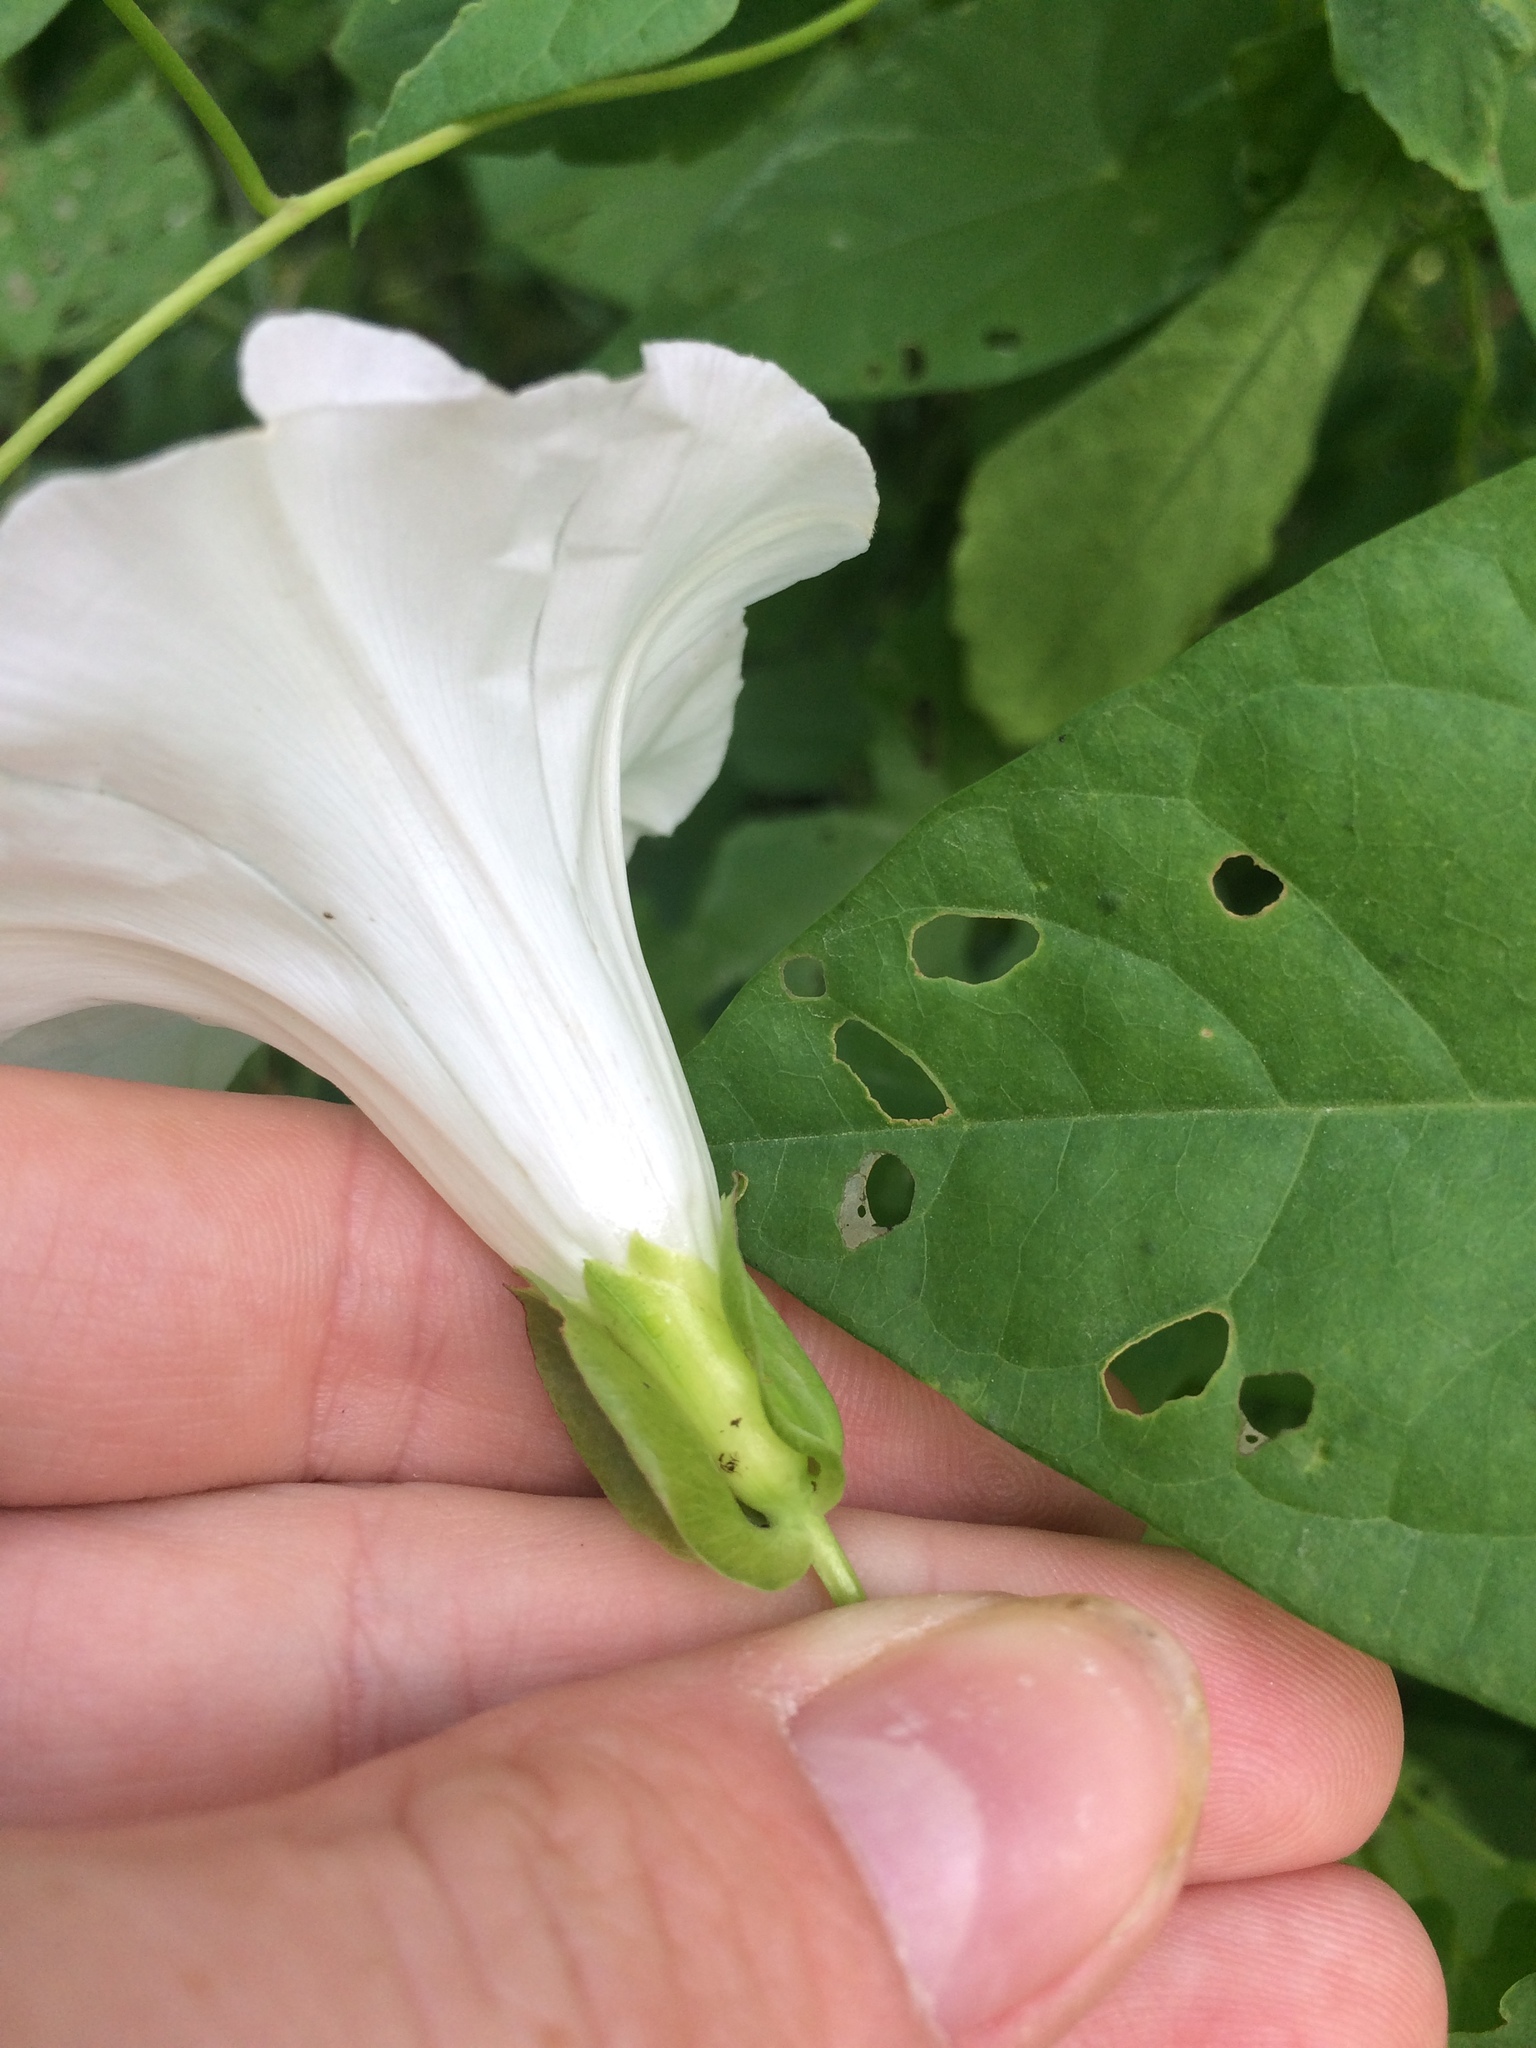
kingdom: Plantae
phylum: Tracheophyta
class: Magnoliopsida
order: Solanales
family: Convolvulaceae
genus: Calystegia
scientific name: Calystegia sepium
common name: Hedge bindweed
